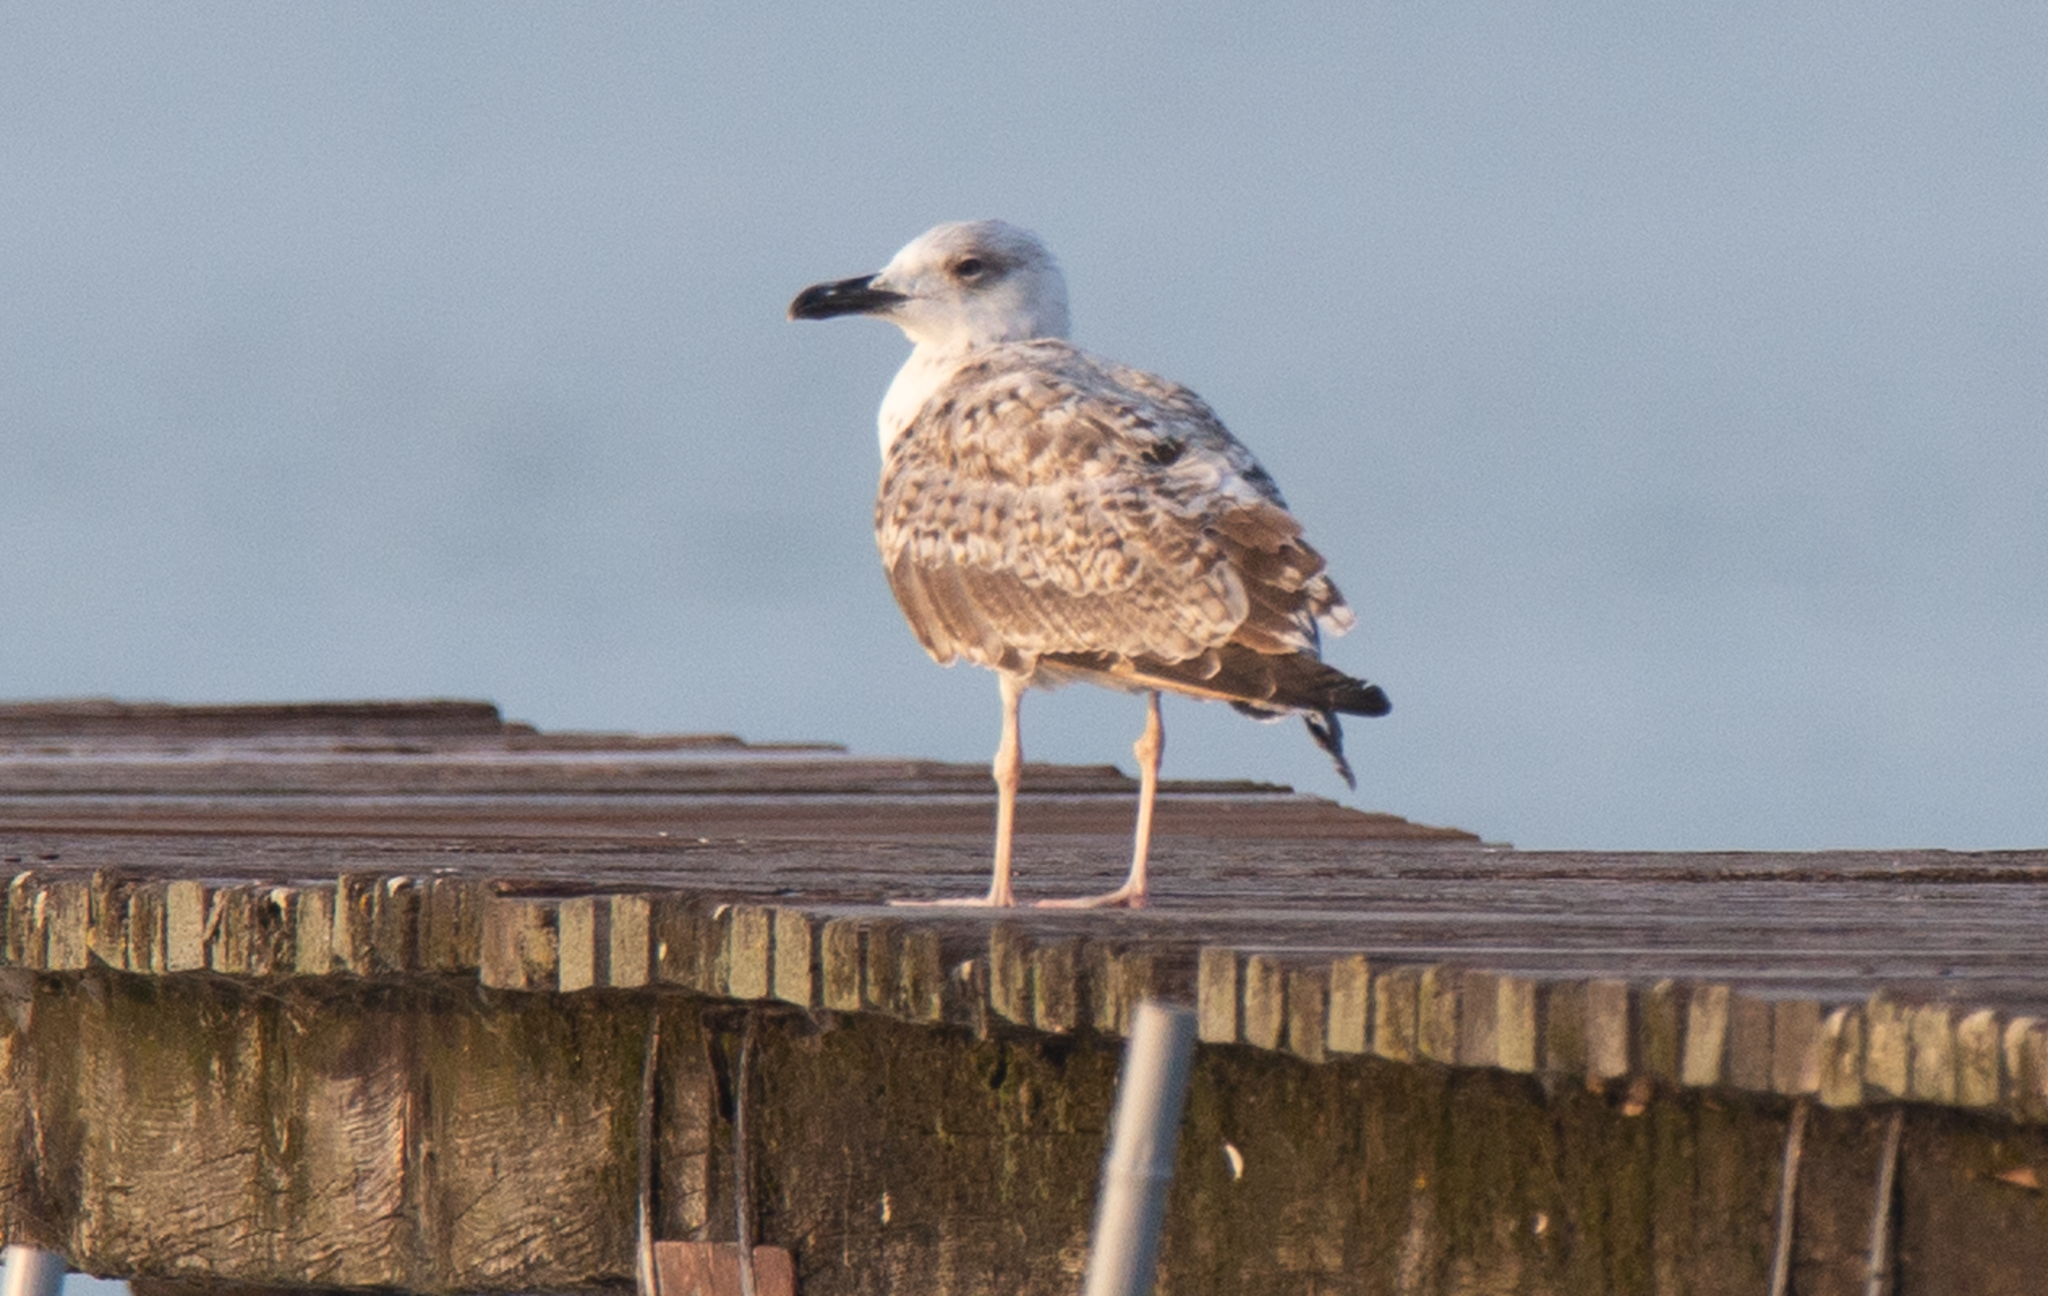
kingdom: Animalia
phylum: Chordata
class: Aves
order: Charadriiformes
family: Laridae
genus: Larus
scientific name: Larus michahellis
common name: Yellow-legged gull
